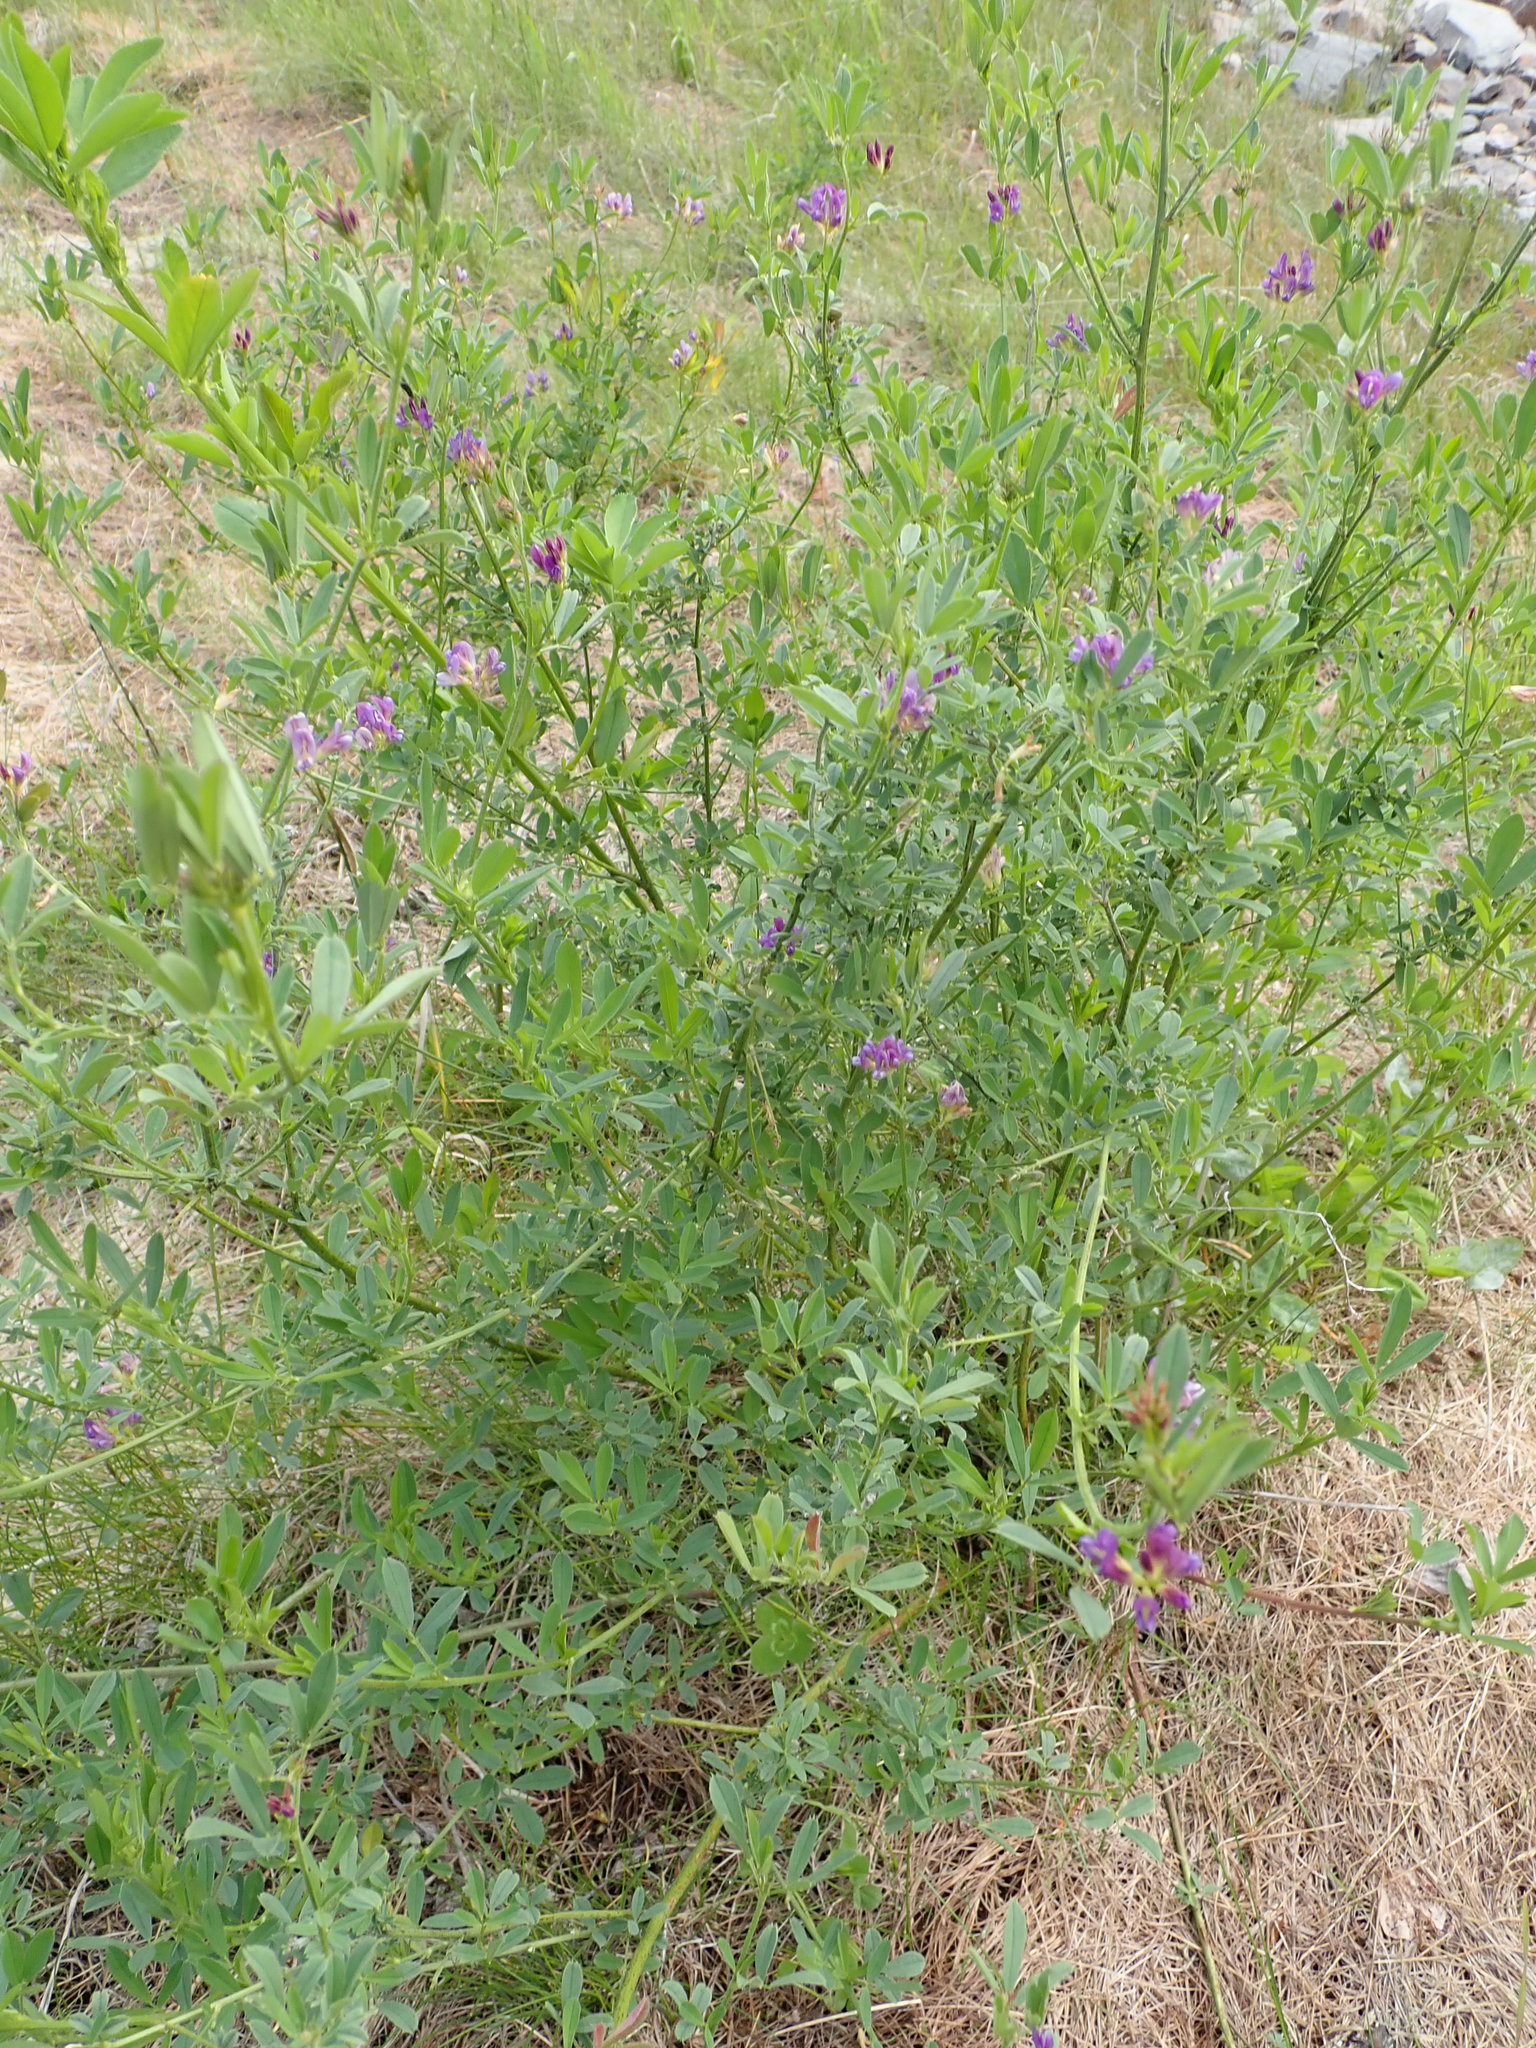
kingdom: Plantae
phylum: Tracheophyta
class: Magnoliopsida
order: Fabales
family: Fabaceae
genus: Medicago
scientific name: Medicago sativa
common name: Alfalfa
